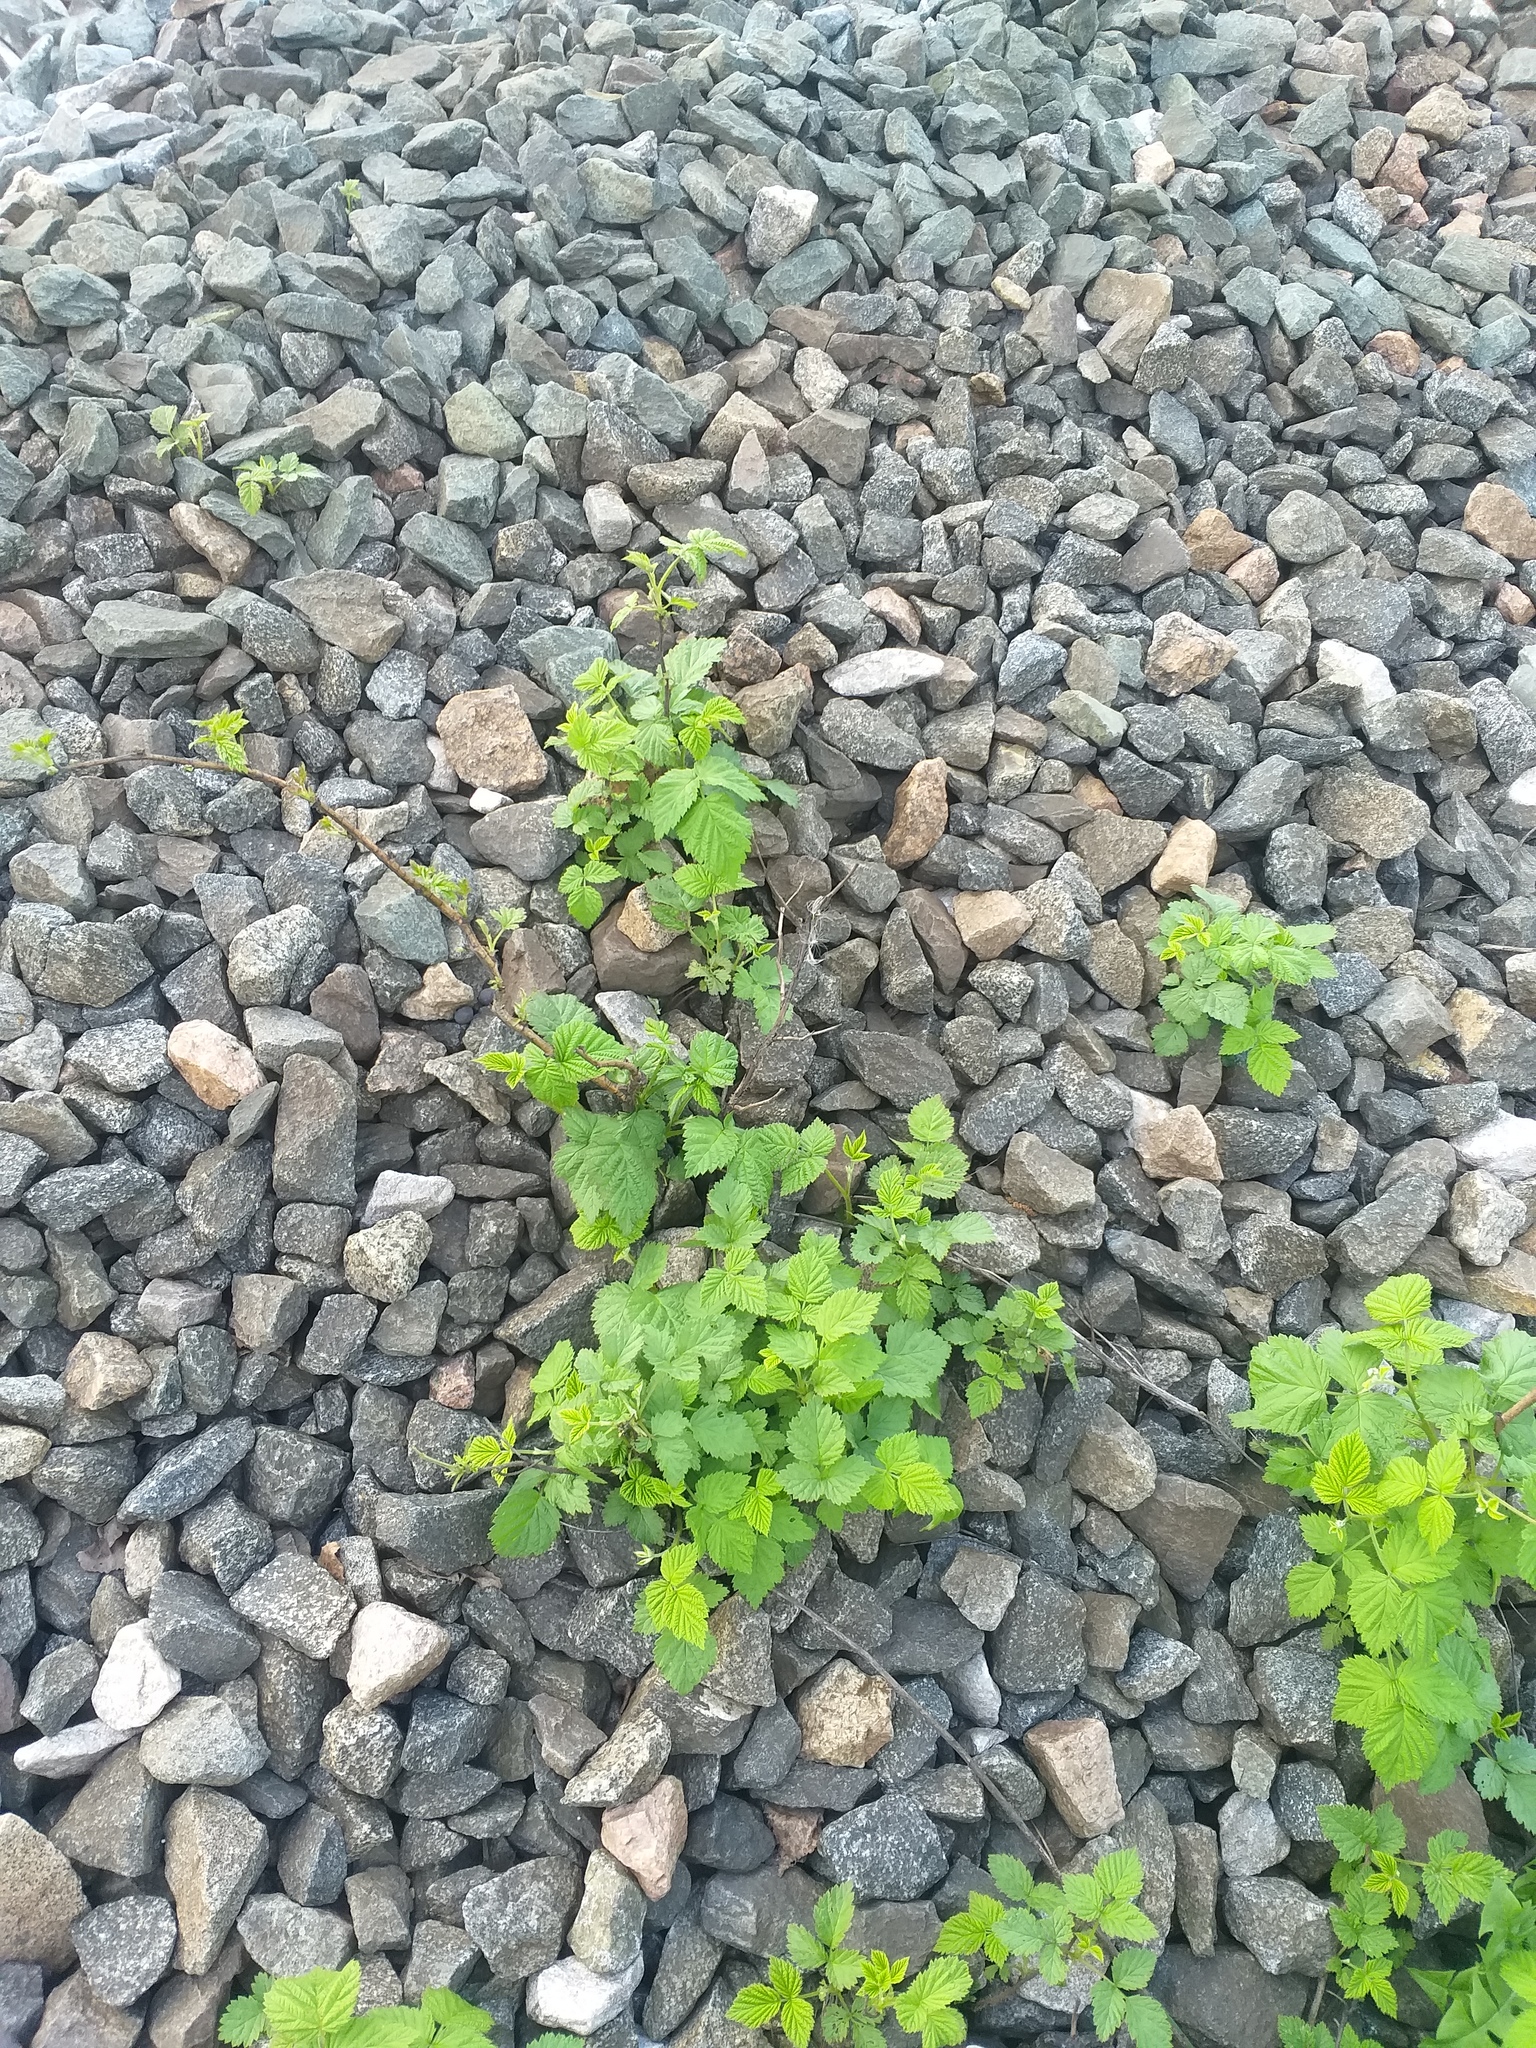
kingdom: Plantae
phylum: Tracheophyta
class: Magnoliopsida
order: Rosales
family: Rosaceae
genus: Rubus
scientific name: Rubus idaeus
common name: Raspberry
